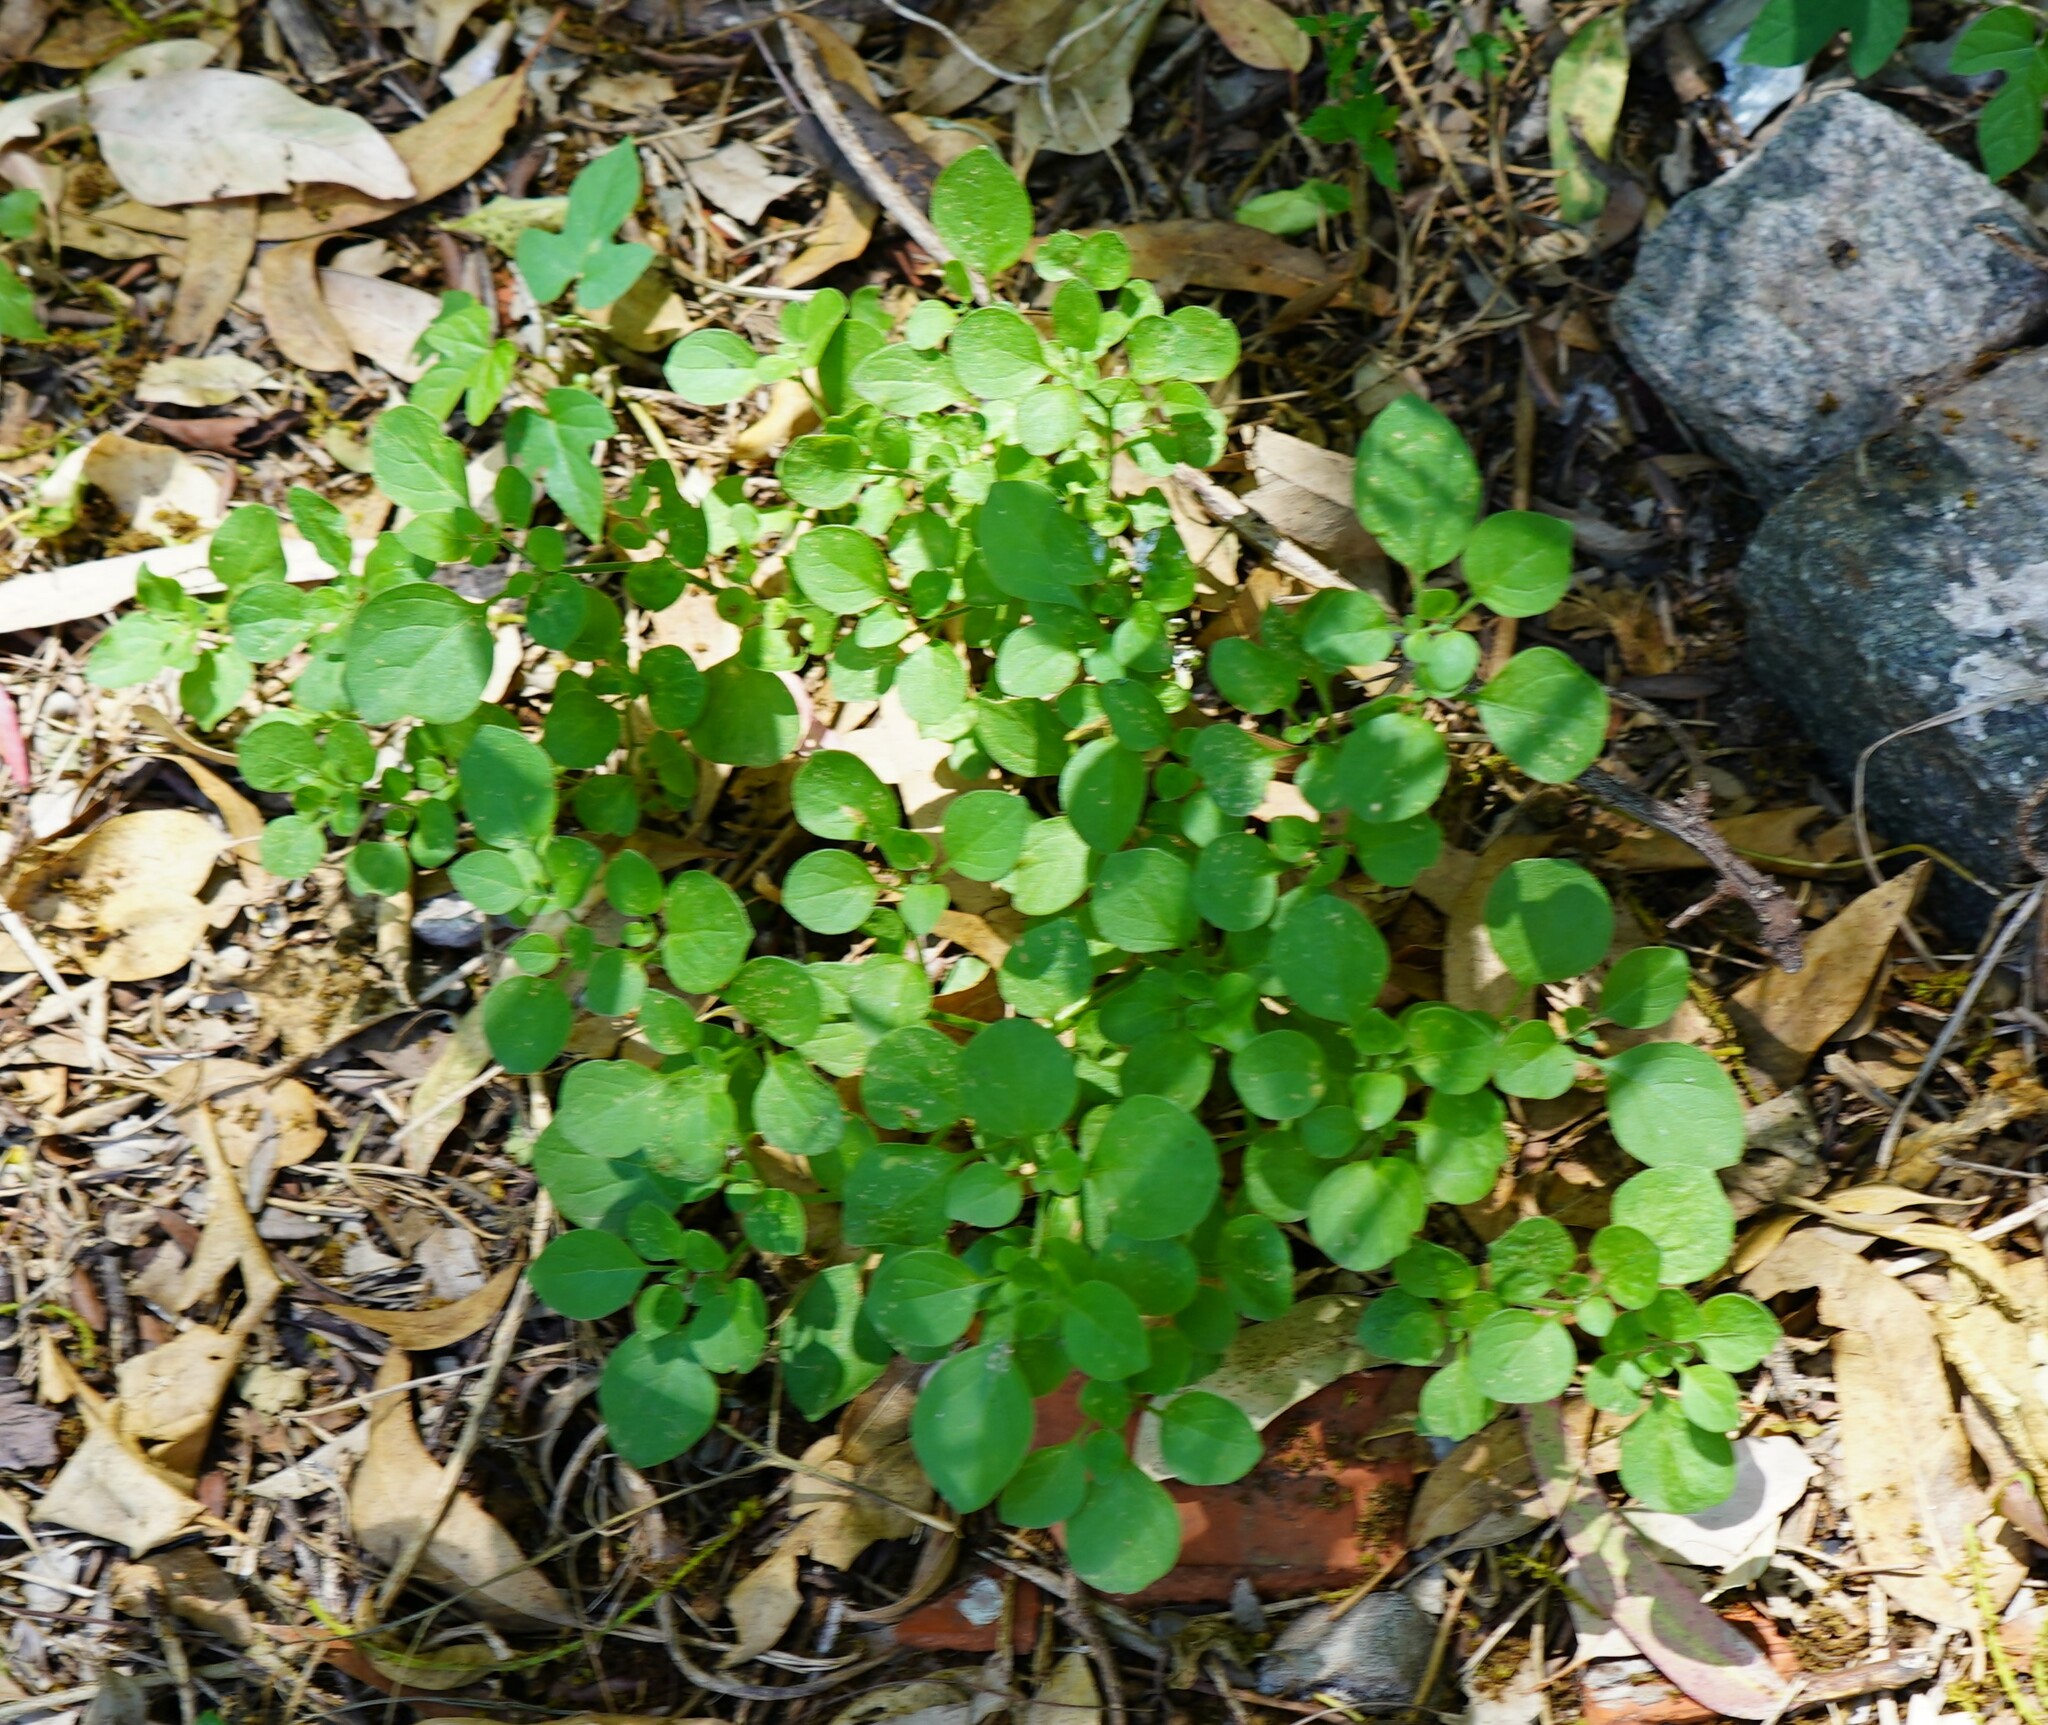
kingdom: Plantae
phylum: Tracheophyta
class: Magnoliopsida
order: Solanales
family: Solanaceae
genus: Salpichroa
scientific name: Salpichroa origanifolia
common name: Lily-of-the-valley-vine
